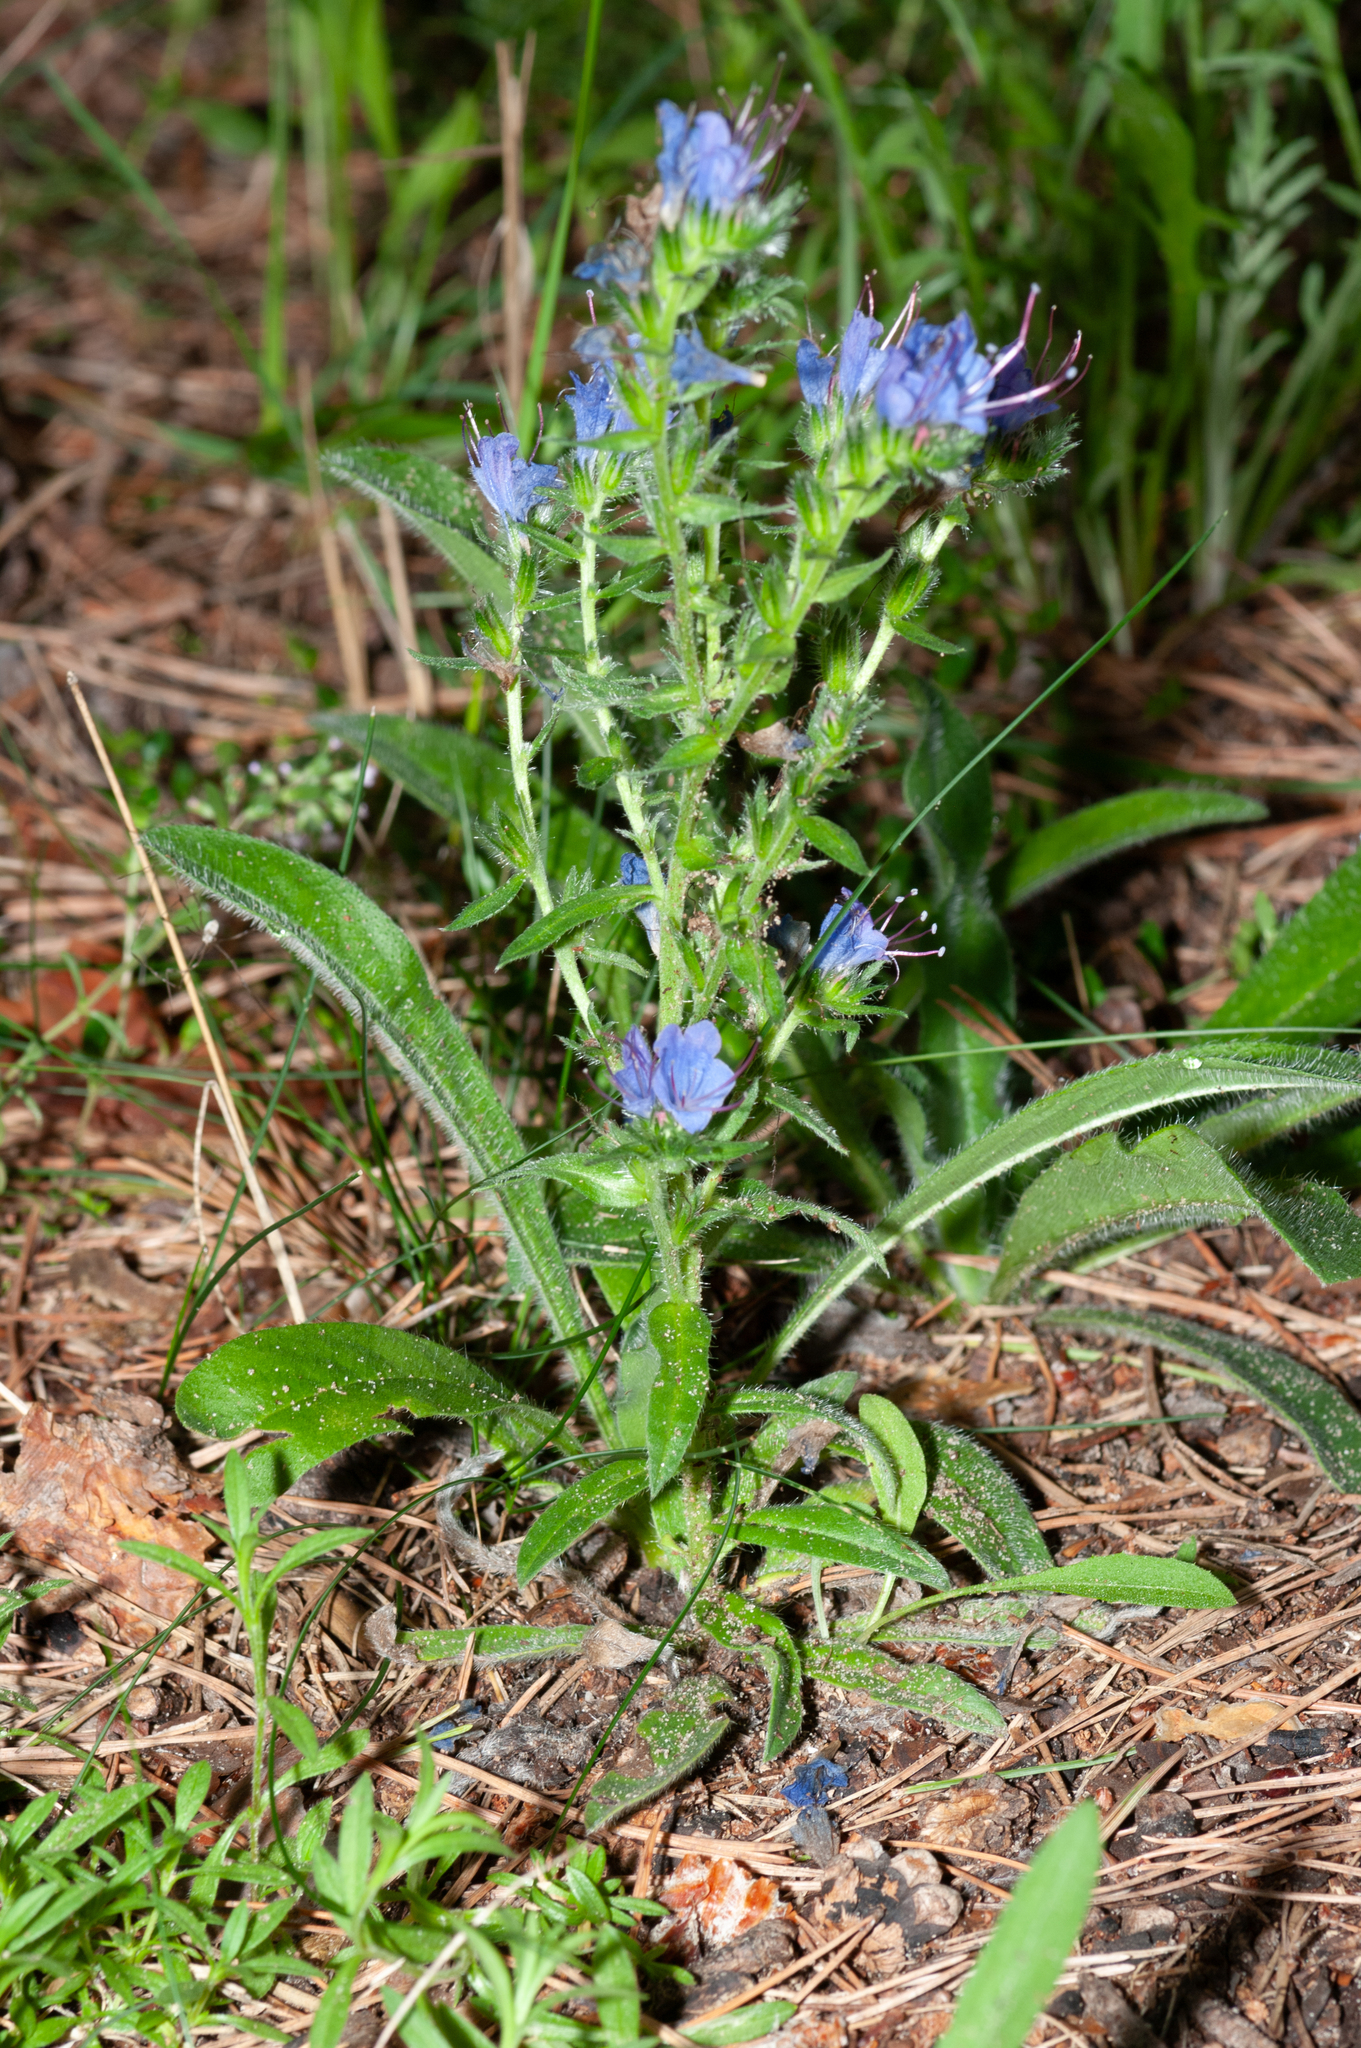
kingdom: Plantae
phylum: Tracheophyta
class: Magnoliopsida
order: Boraginales
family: Boraginaceae
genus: Echium
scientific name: Echium vulgare
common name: Common viper's bugloss
